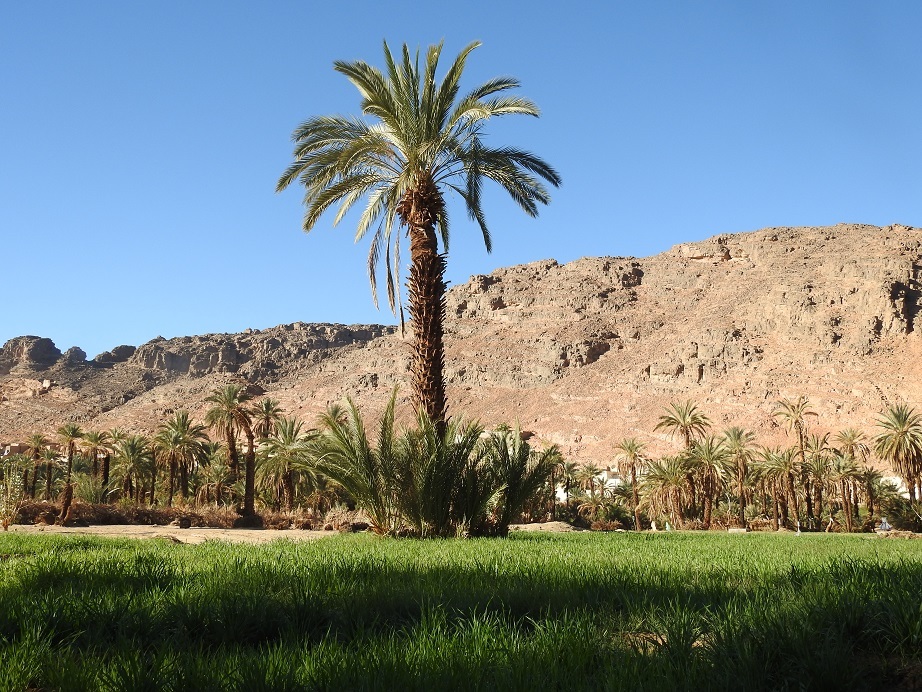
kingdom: Plantae
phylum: Tracheophyta
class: Liliopsida
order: Arecales
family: Arecaceae
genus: Phoenix
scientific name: Phoenix dactylifera
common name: Date palm
